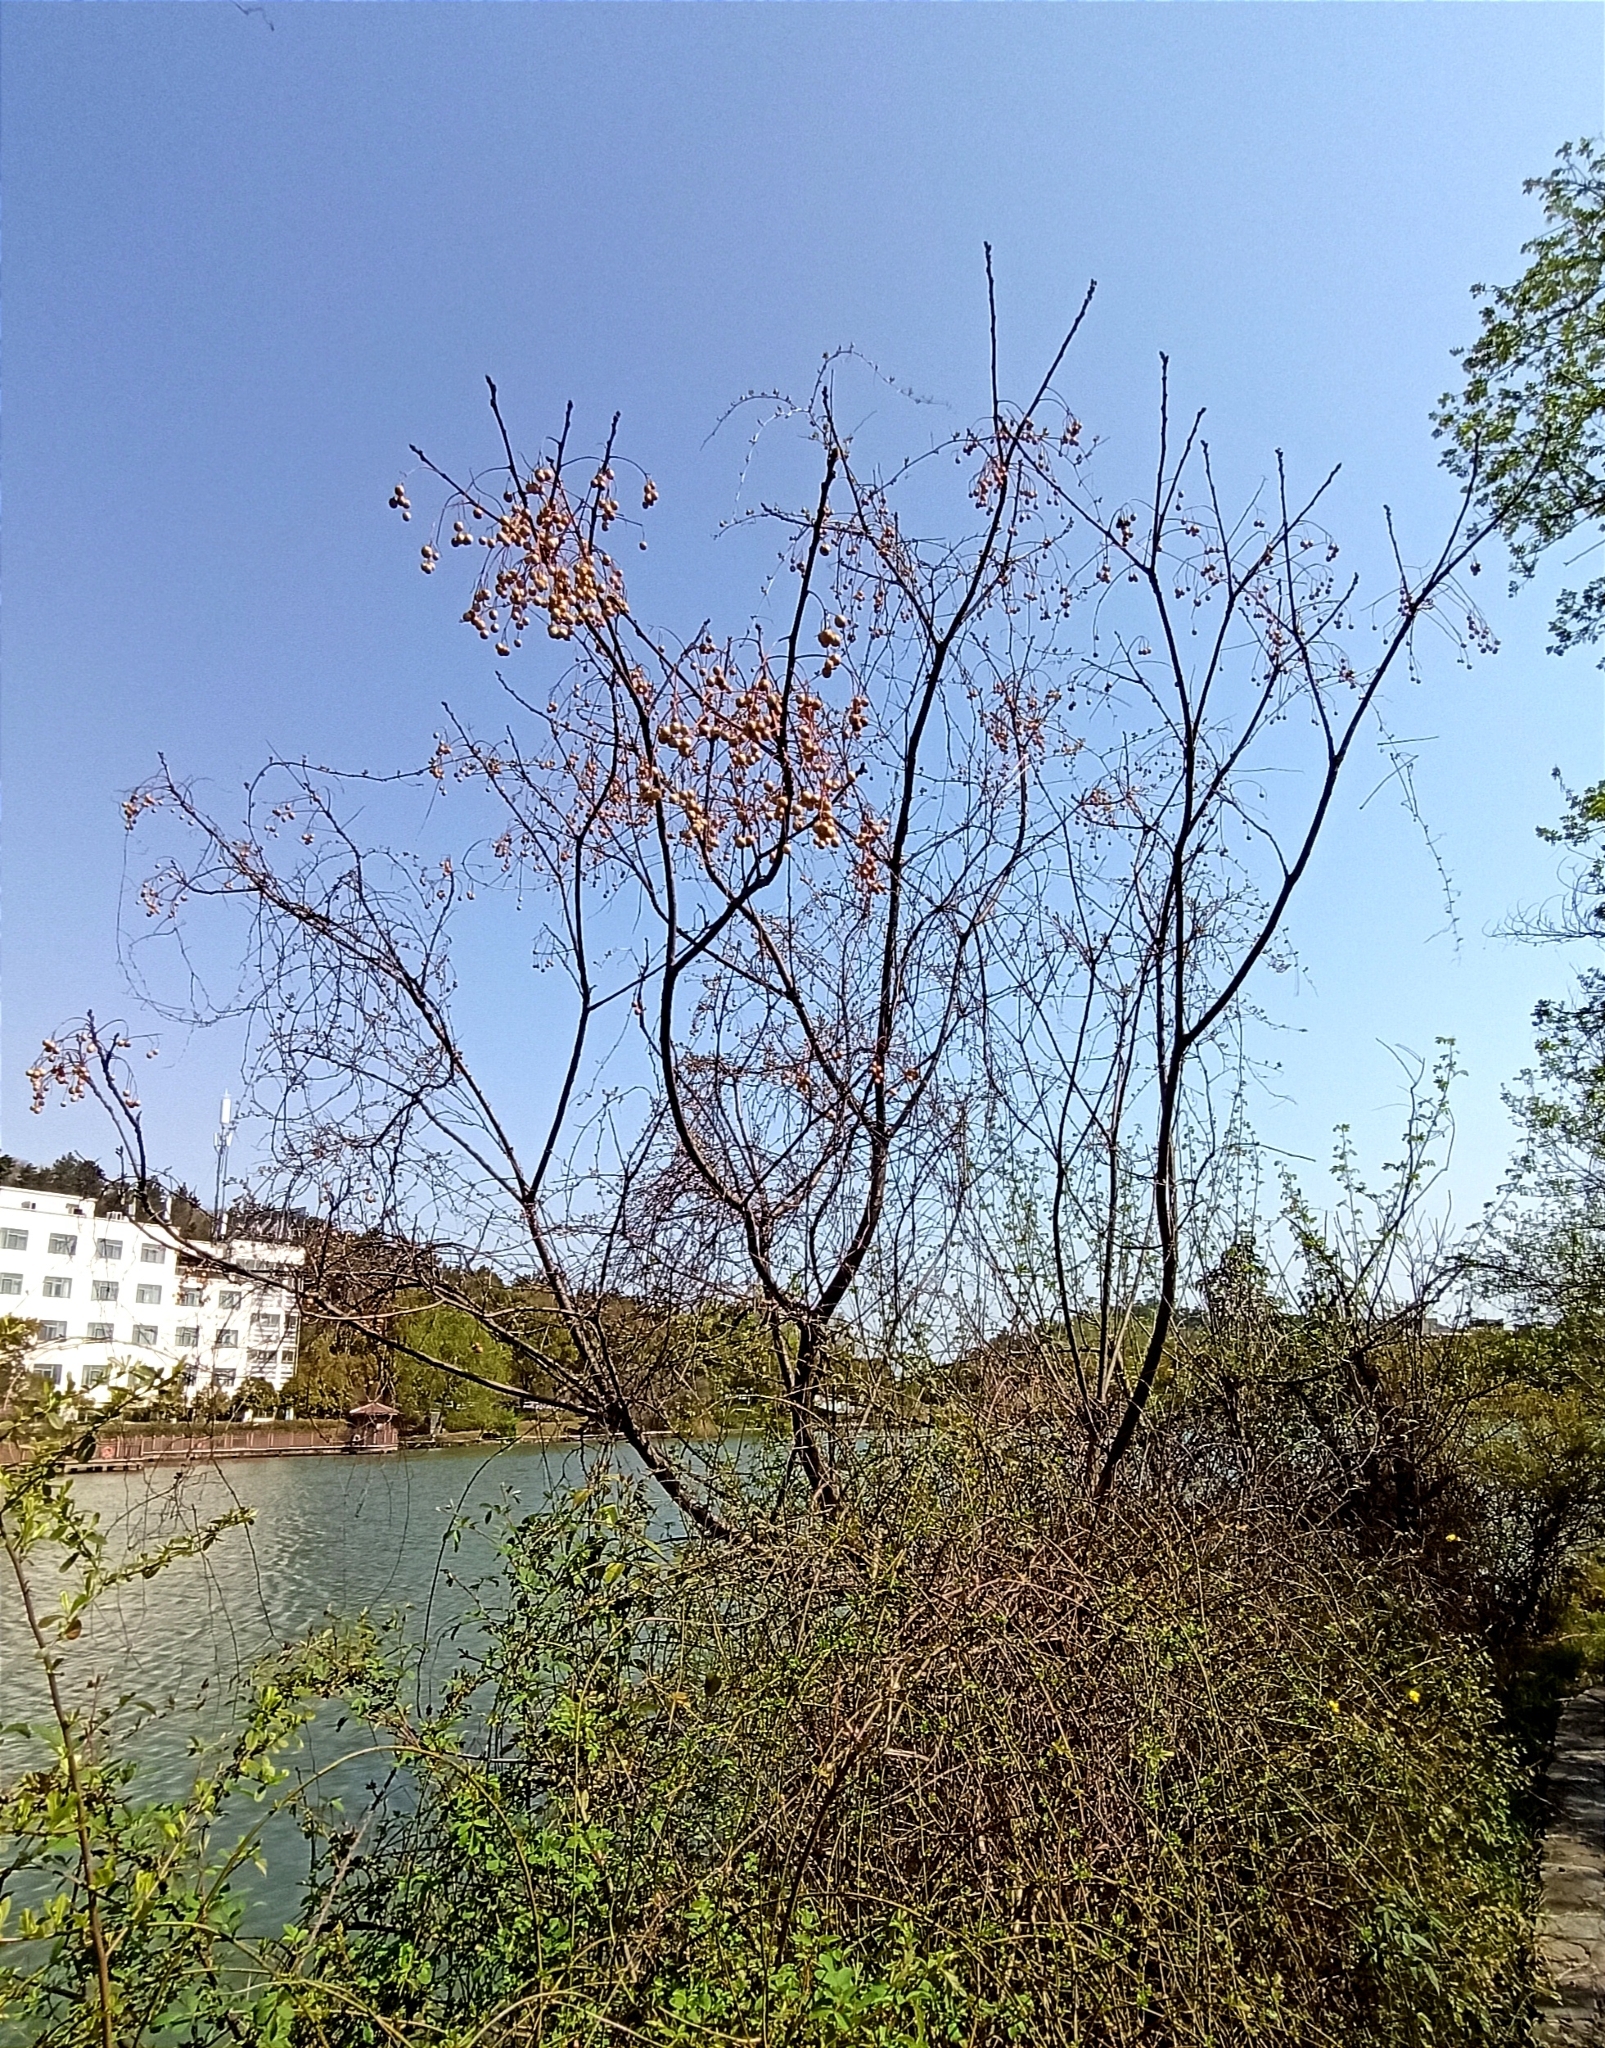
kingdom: Plantae
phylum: Tracheophyta
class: Magnoliopsida
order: Sapindales
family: Meliaceae
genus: Melia
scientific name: Melia azedarach
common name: Chinaberrytree
